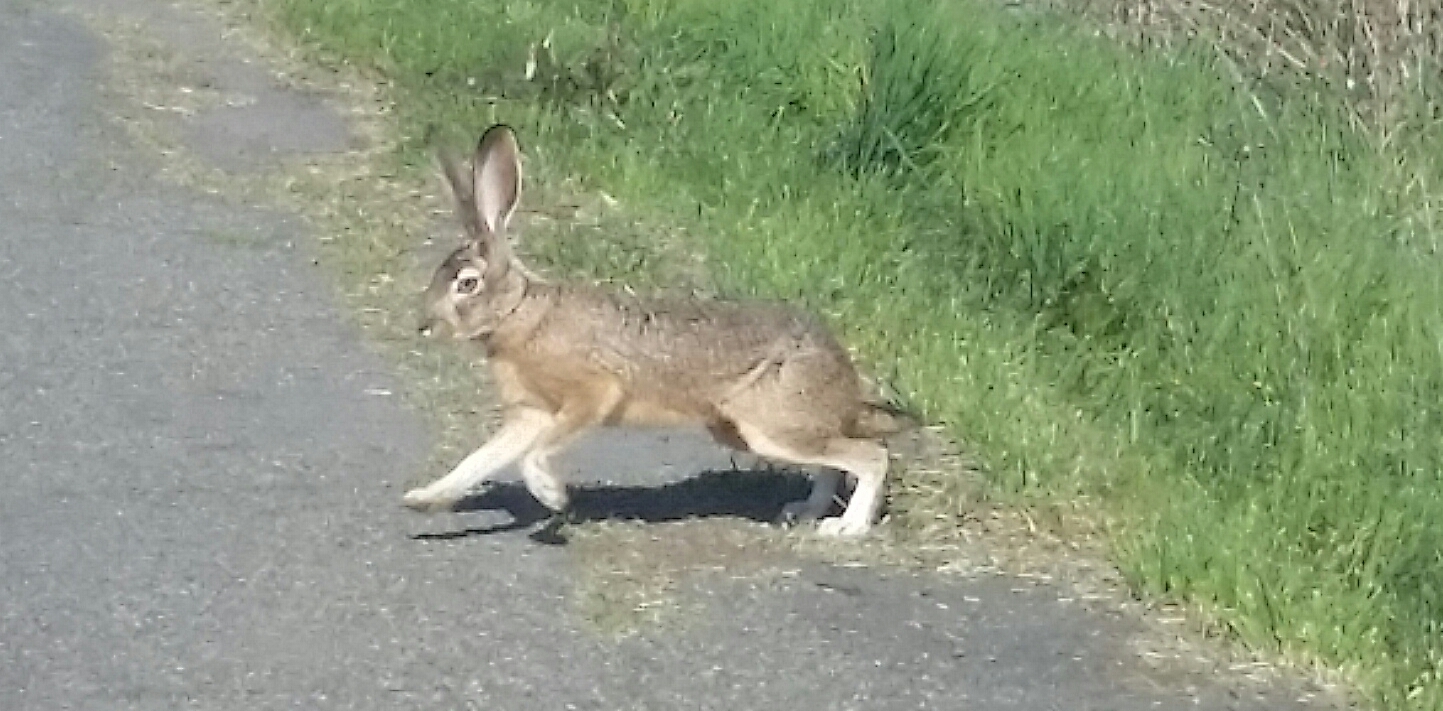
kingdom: Animalia
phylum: Chordata
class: Mammalia
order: Lagomorpha
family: Leporidae
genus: Lepus
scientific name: Lepus californicus
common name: Black-tailed jackrabbit
